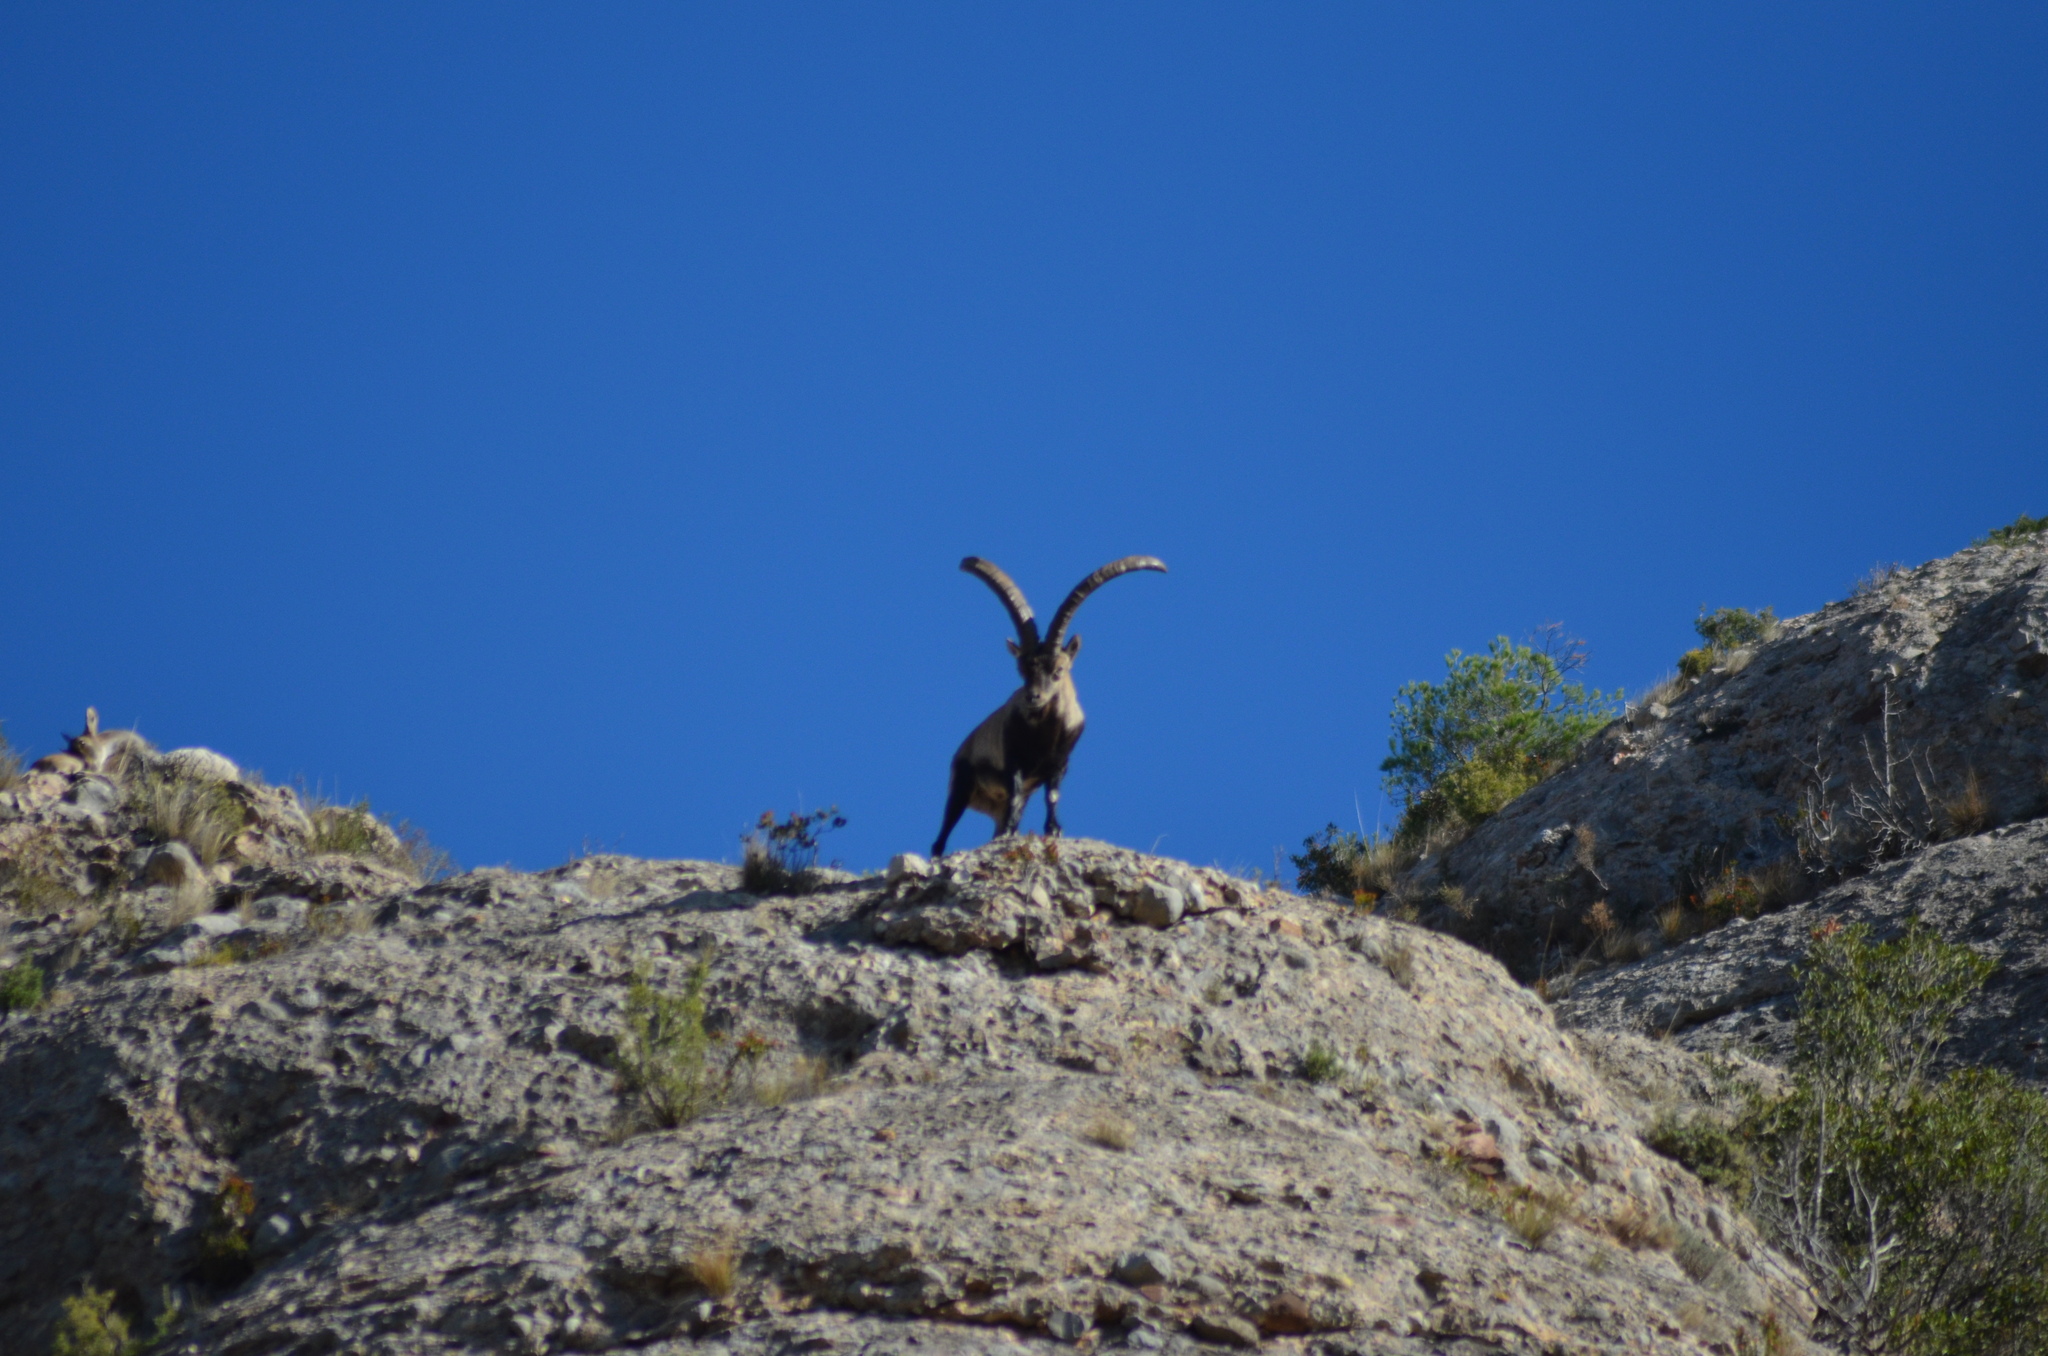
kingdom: Animalia
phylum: Chordata
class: Mammalia
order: Artiodactyla
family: Bovidae
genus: Capra
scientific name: Capra pyrenaica
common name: Spanish ibex
